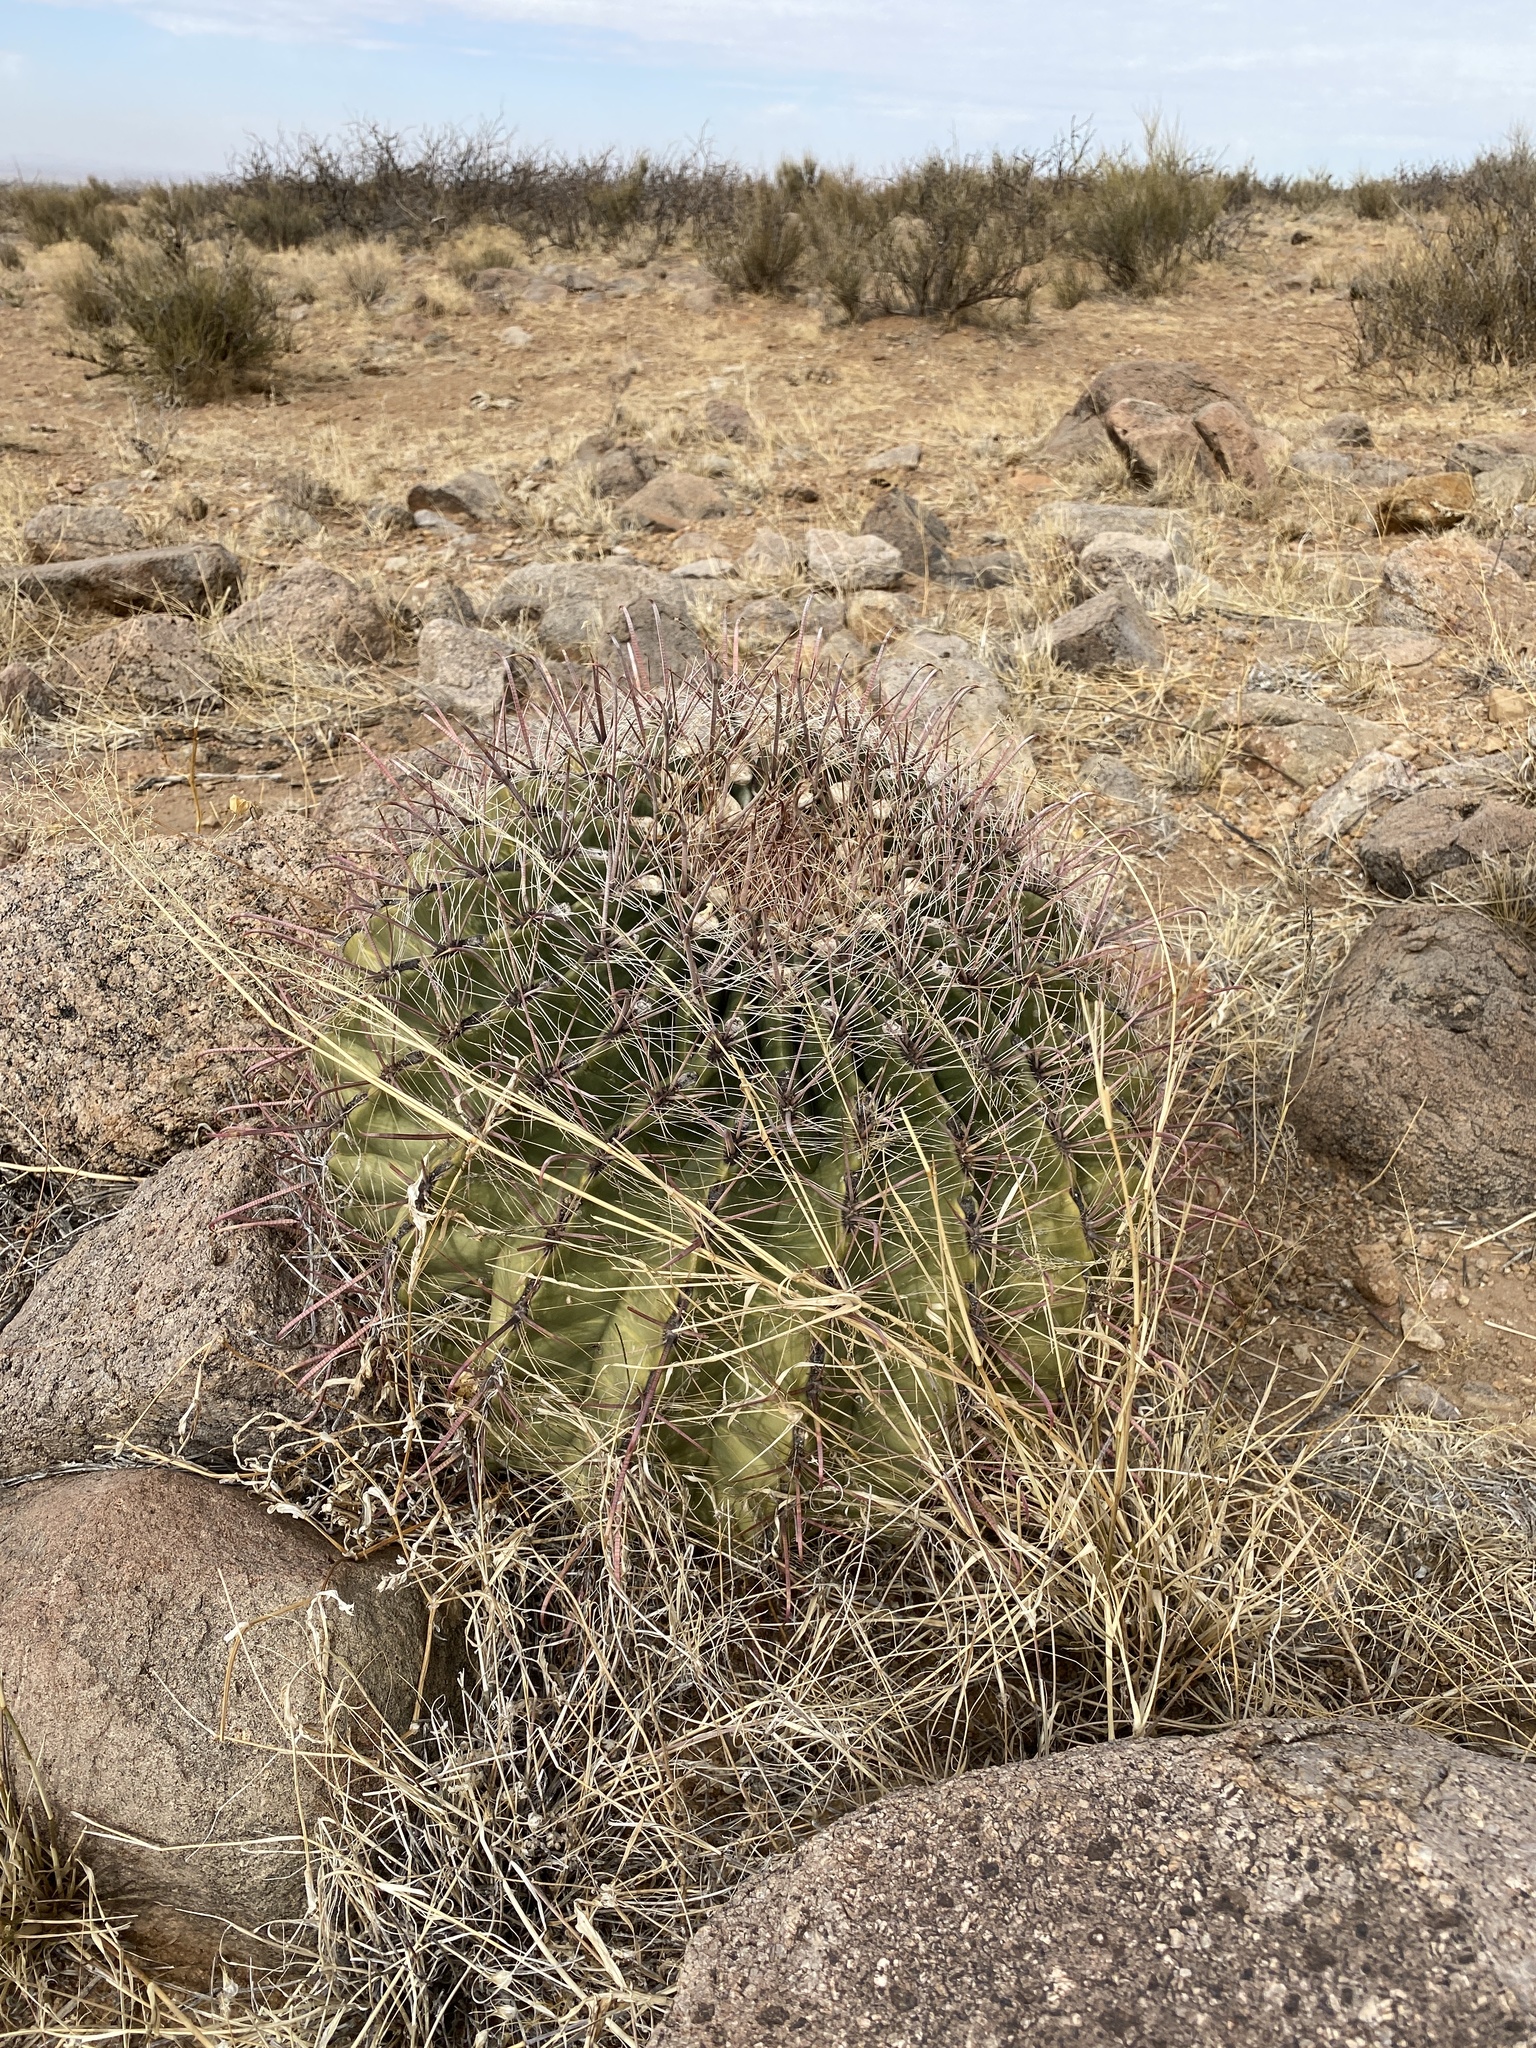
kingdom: Plantae
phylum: Tracheophyta
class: Magnoliopsida
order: Caryophyllales
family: Cactaceae
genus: Ferocactus
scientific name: Ferocactus wislizeni
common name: Candy barrel cactus
